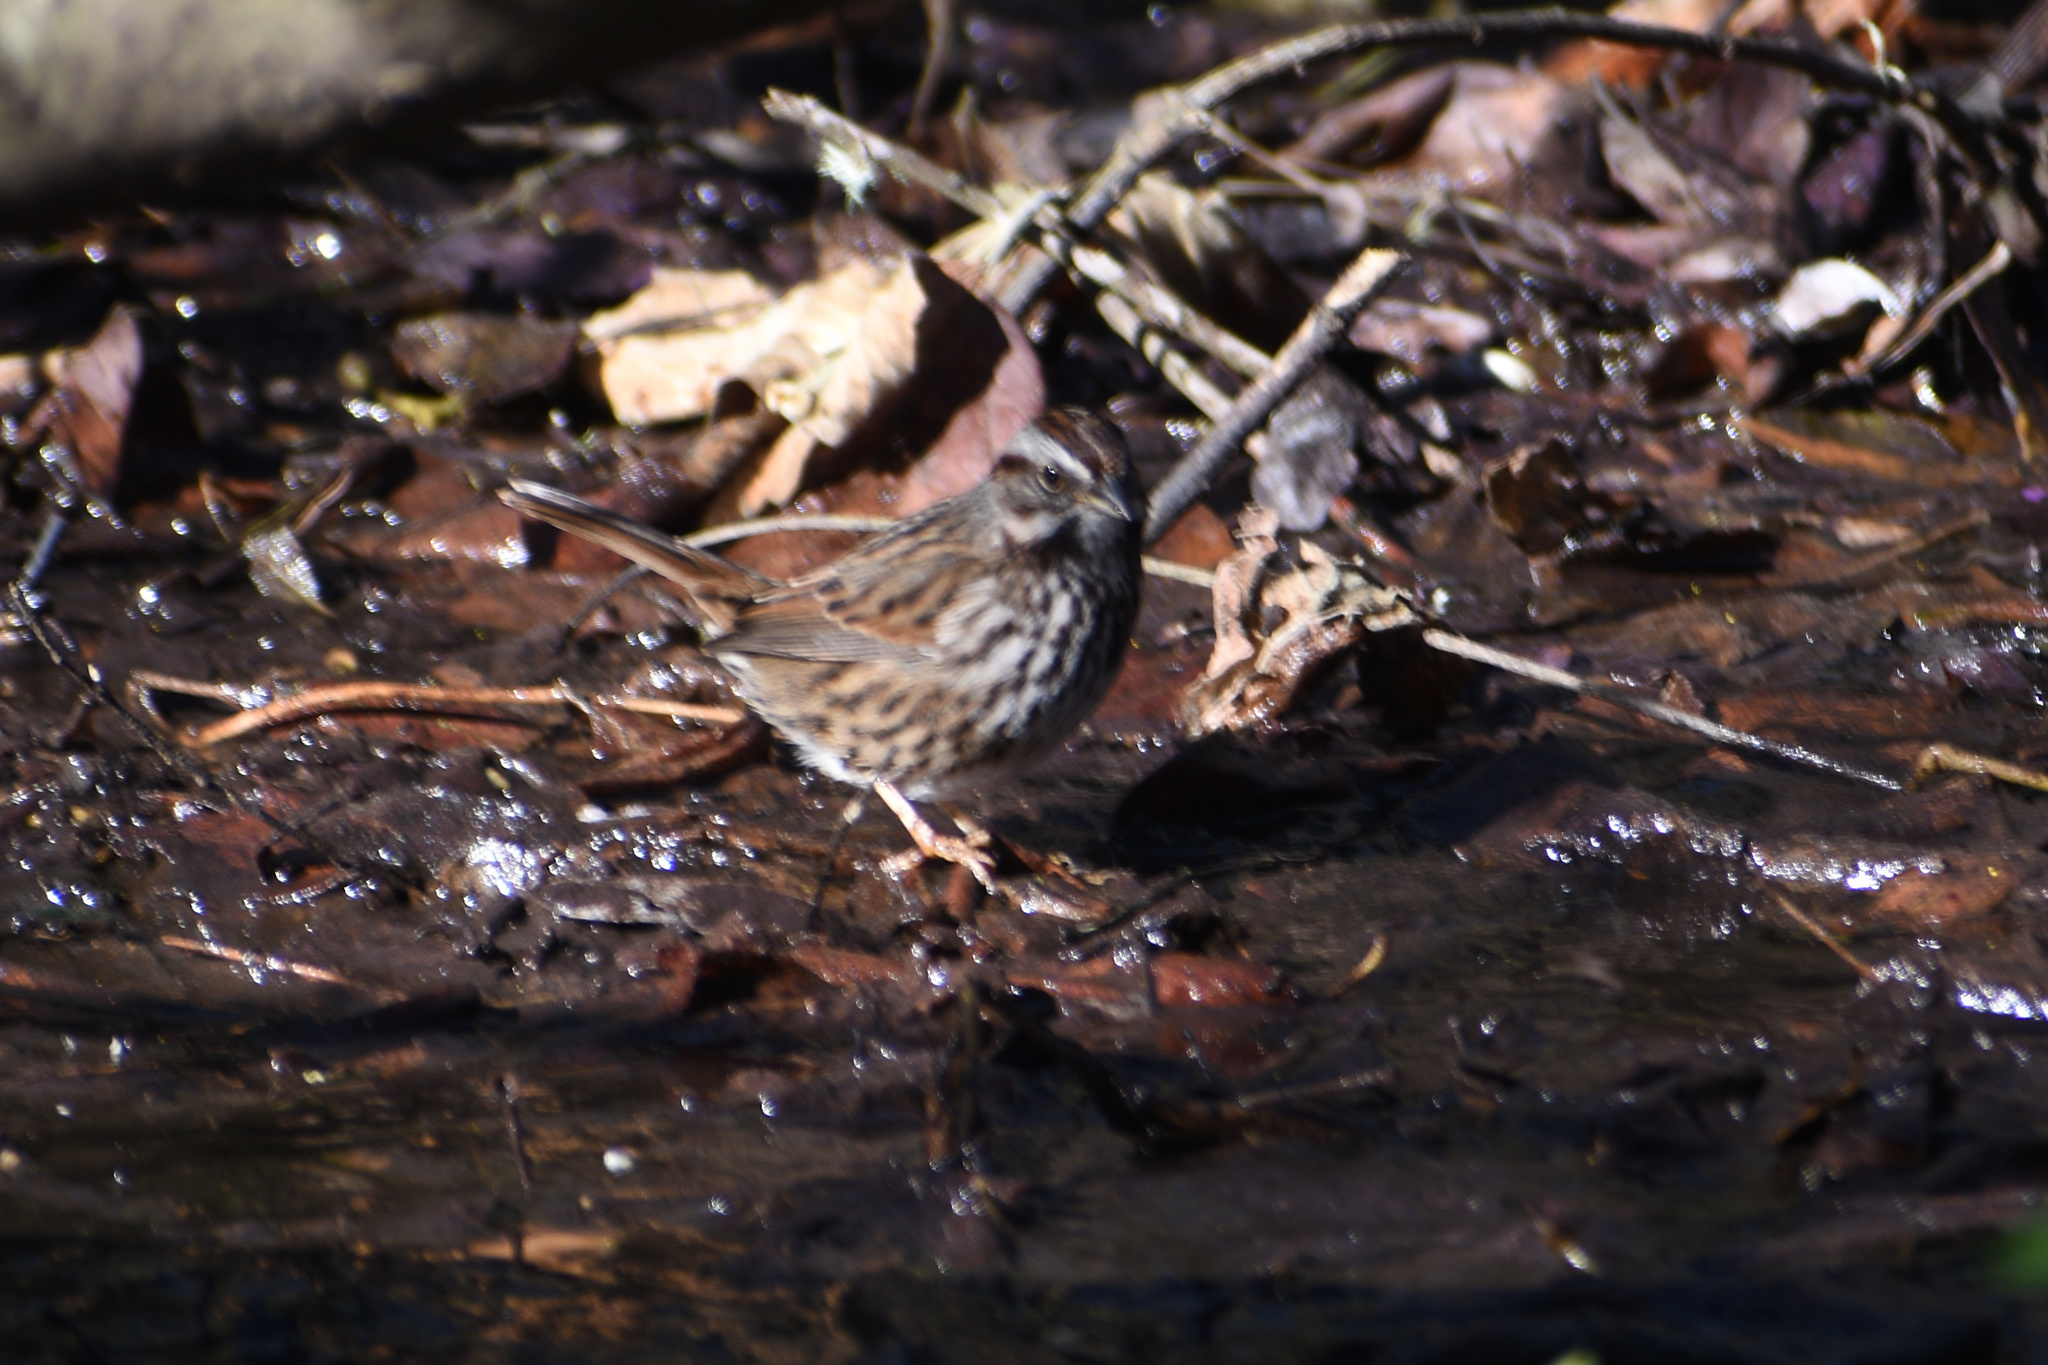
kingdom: Animalia
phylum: Chordata
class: Aves
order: Passeriformes
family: Passerellidae
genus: Melospiza
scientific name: Melospiza melodia
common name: Song sparrow
